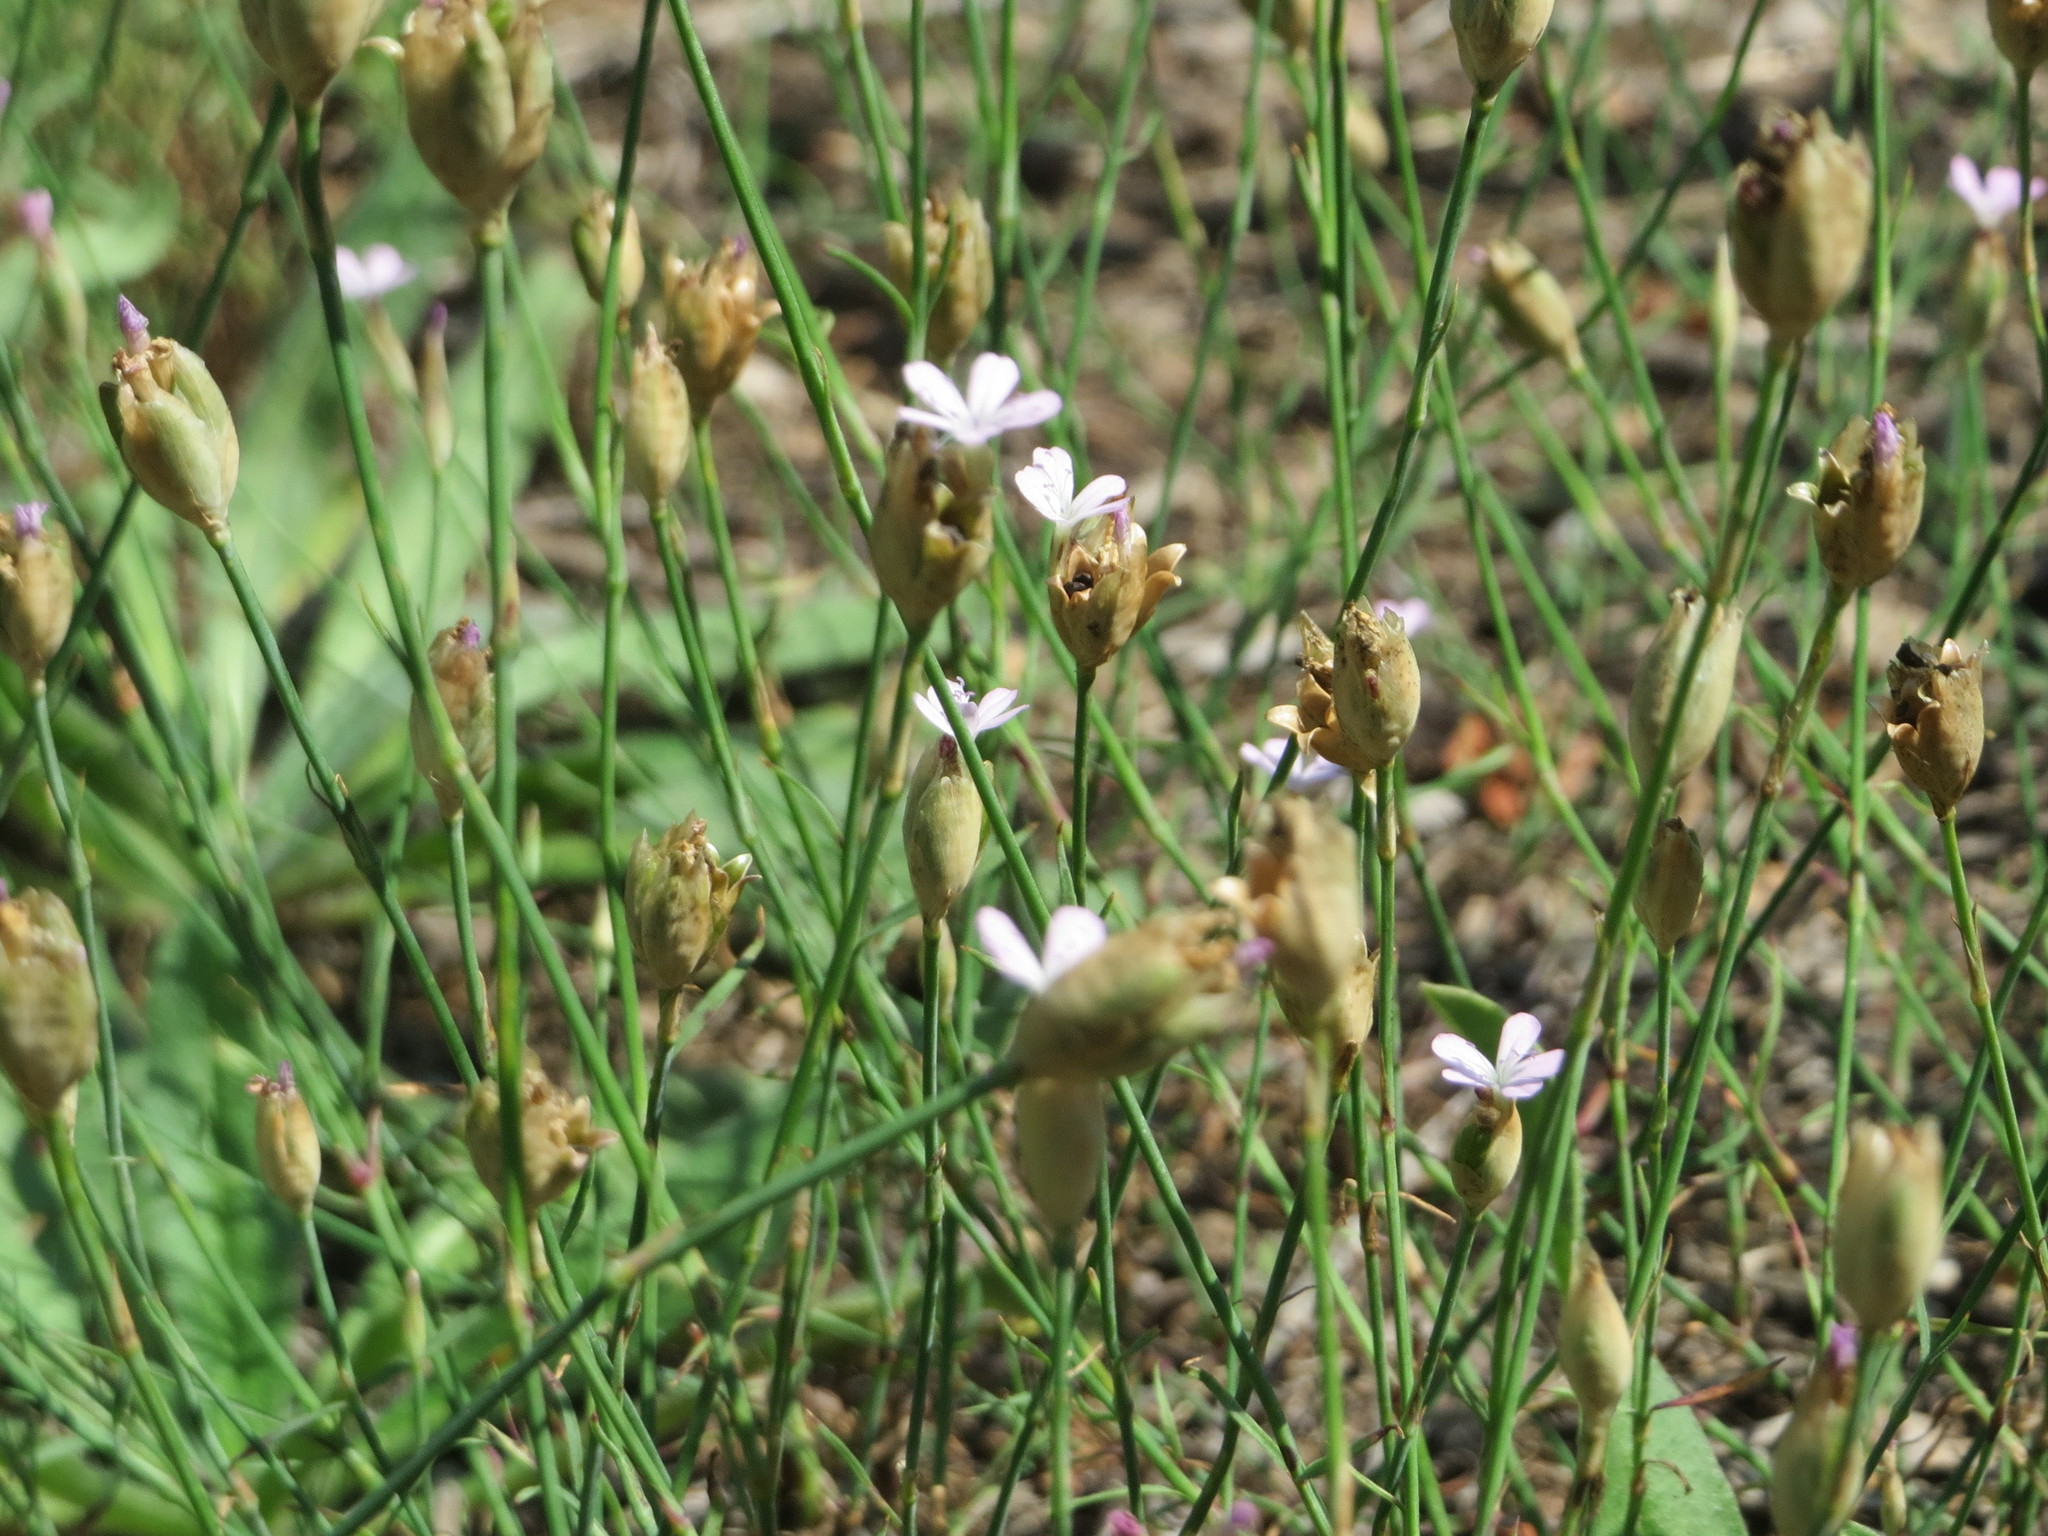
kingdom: Plantae
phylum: Tracheophyta
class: Magnoliopsida
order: Caryophyllales
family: Caryophyllaceae
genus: Petrorhagia
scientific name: Petrorhagia prolifera
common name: Proliferous pink
